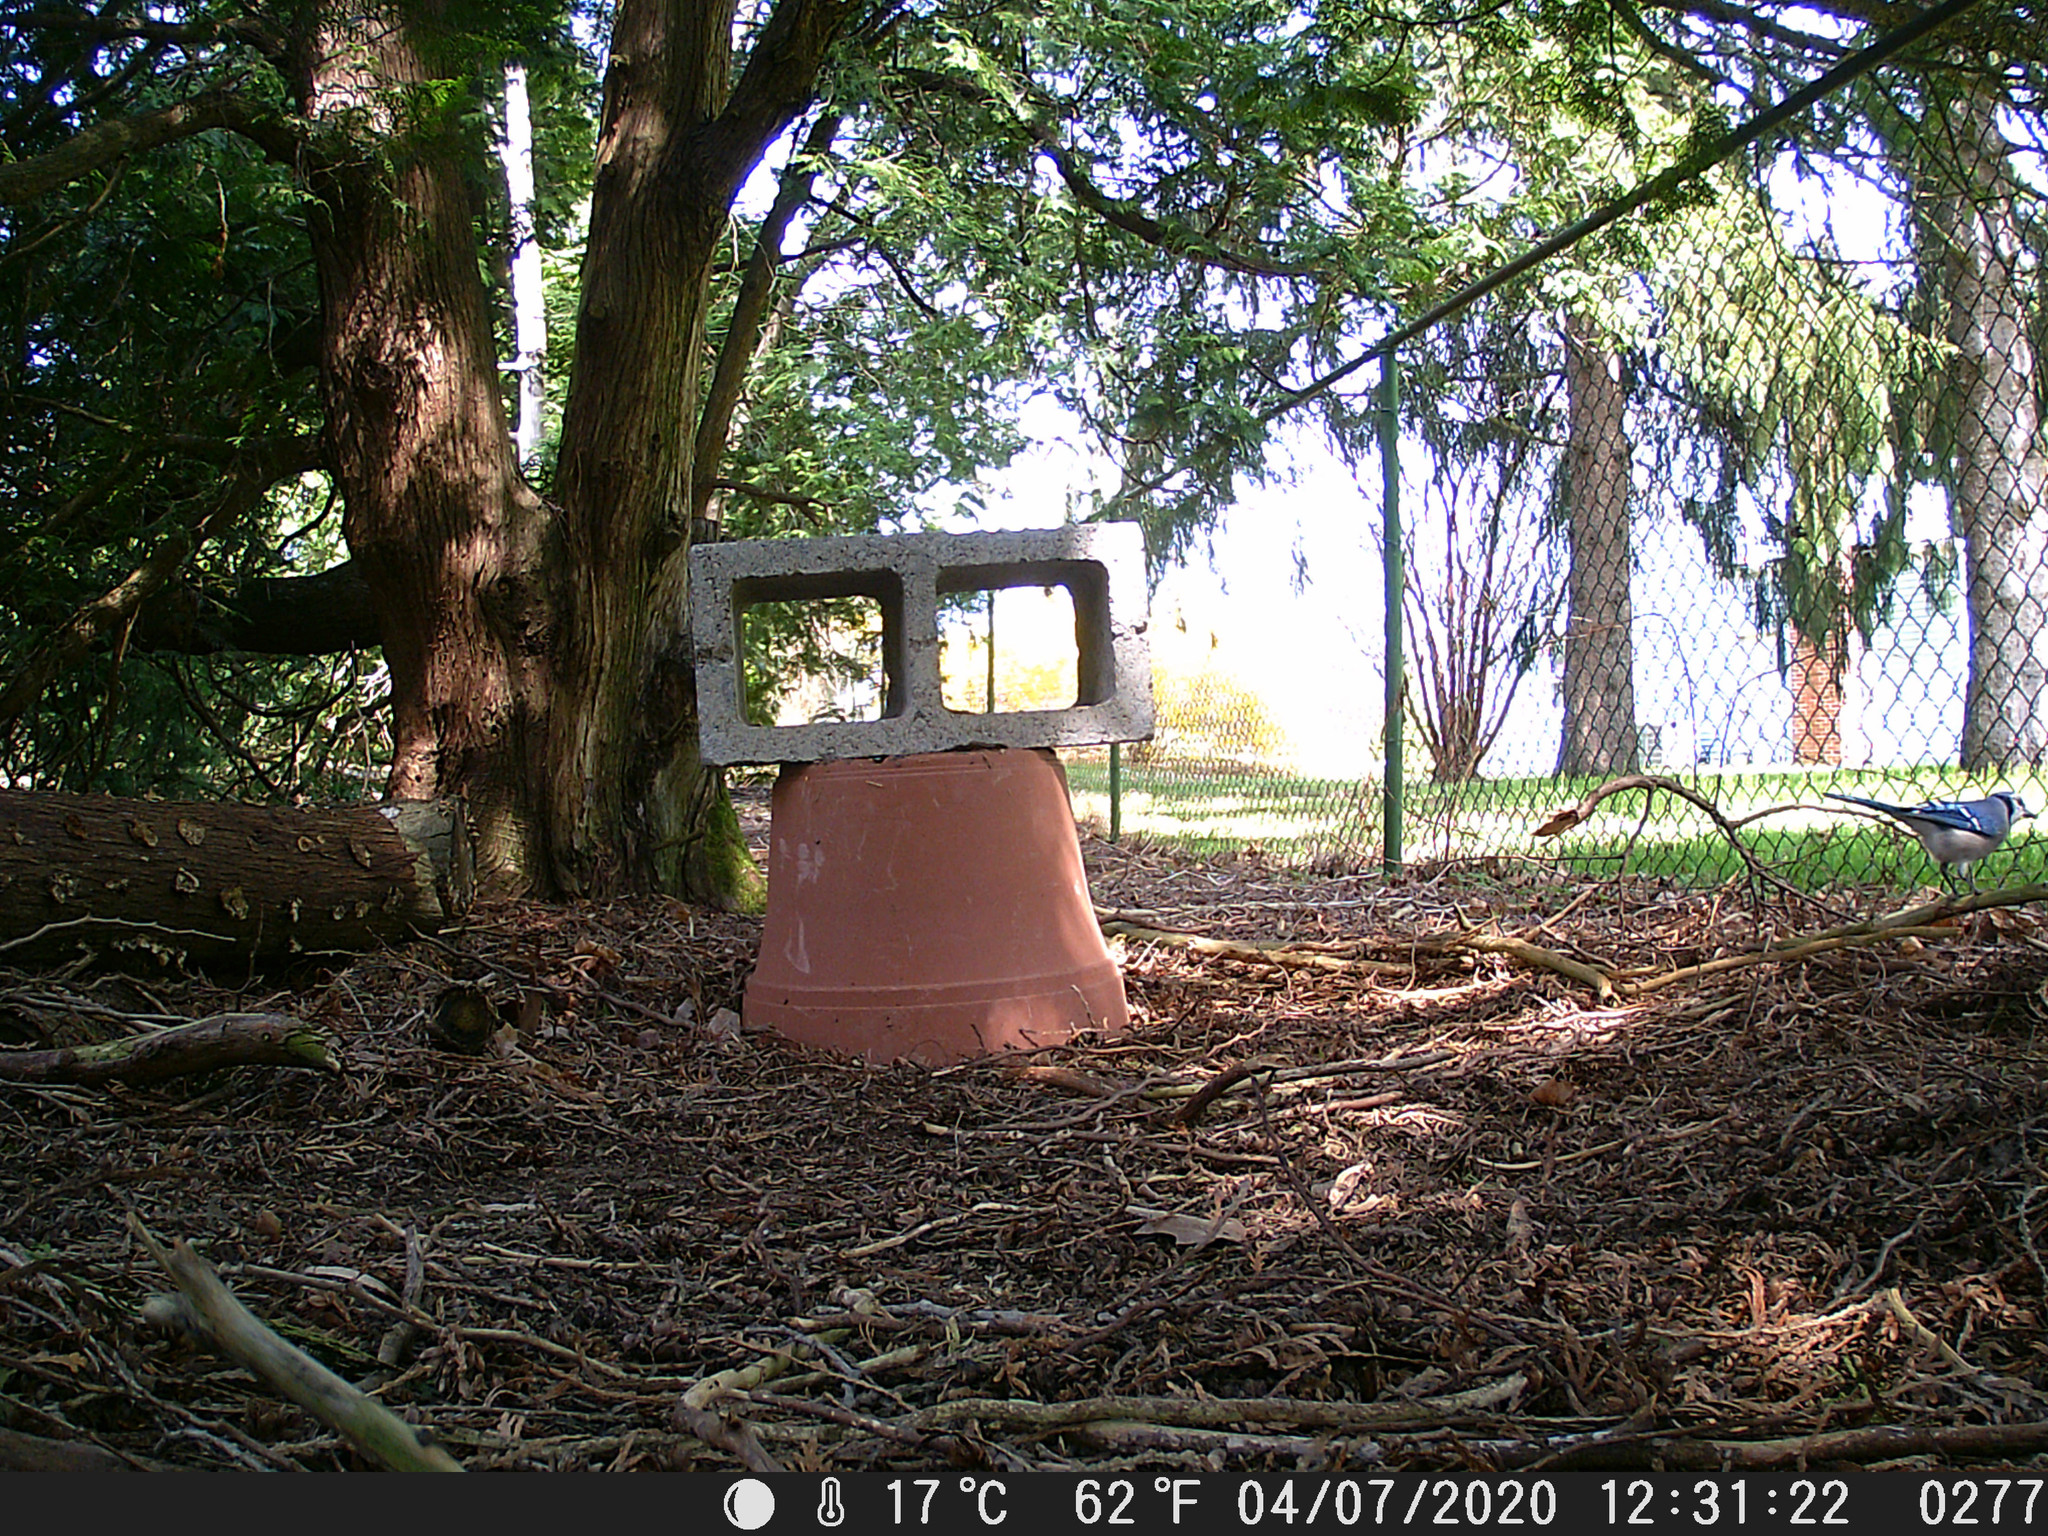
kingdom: Animalia
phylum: Chordata
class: Aves
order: Passeriformes
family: Corvidae
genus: Cyanocitta
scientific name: Cyanocitta cristata
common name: Blue jay
